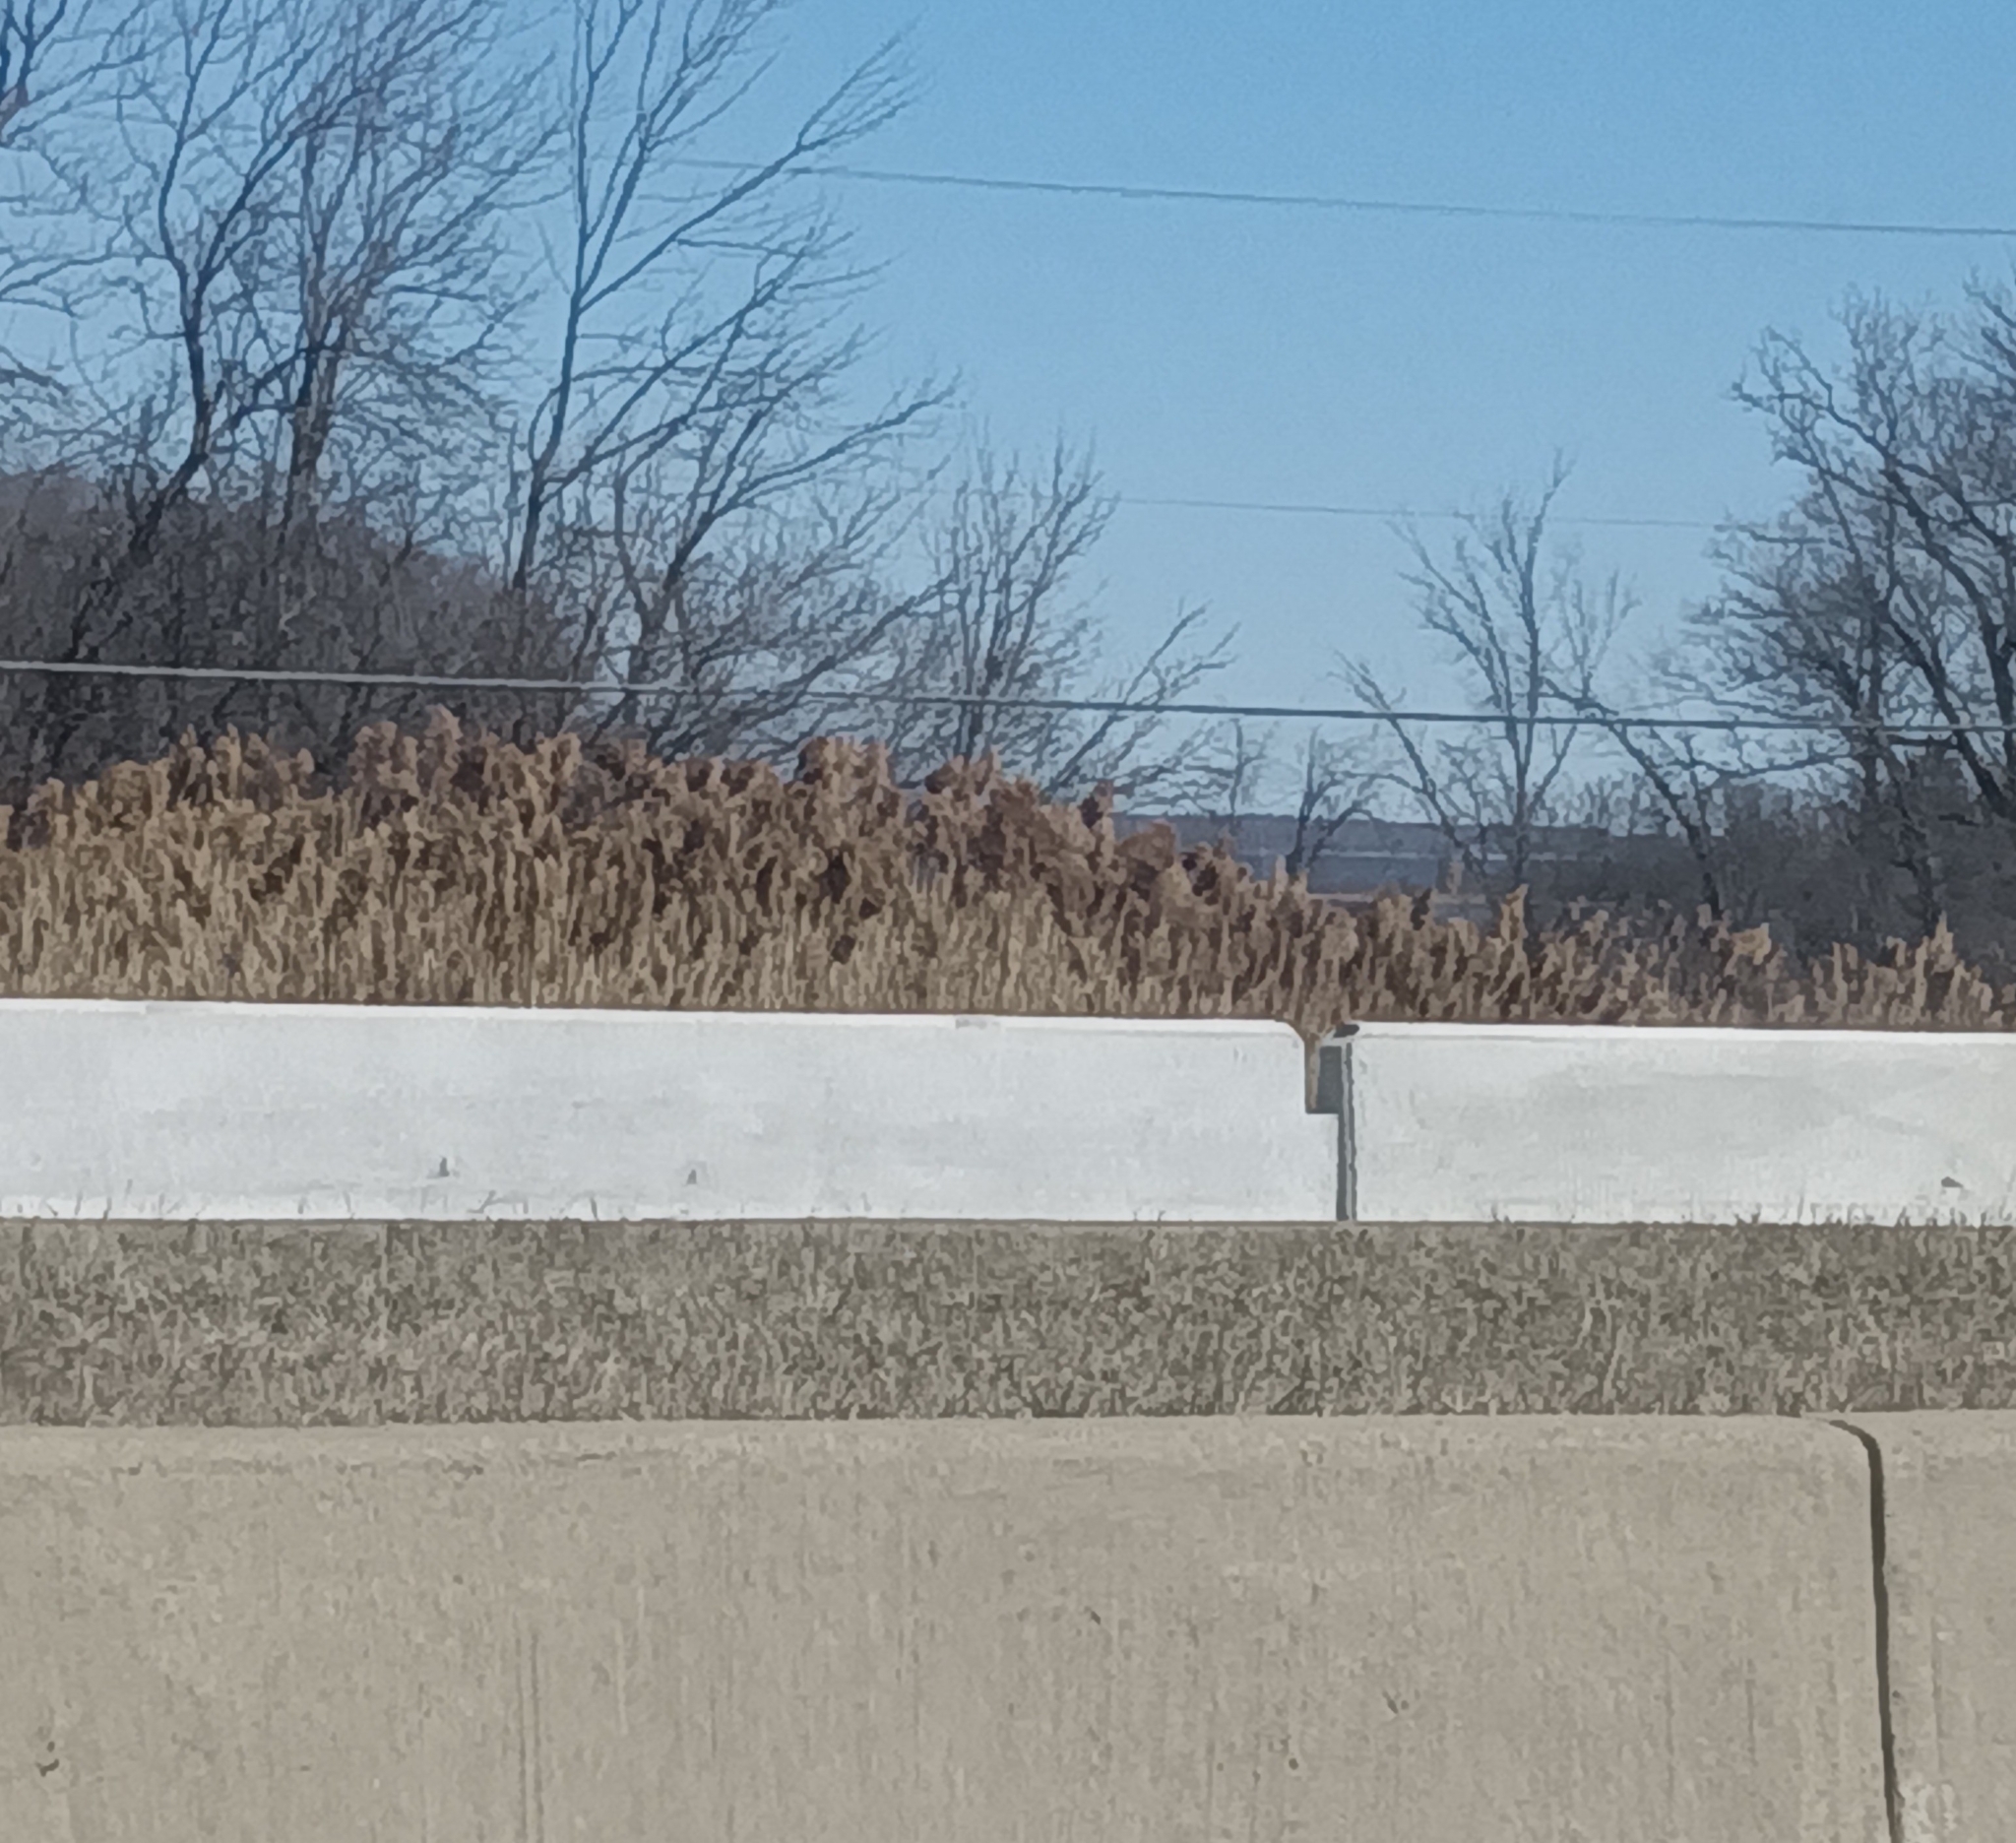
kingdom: Plantae
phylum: Tracheophyta
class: Liliopsida
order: Poales
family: Poaceae
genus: Phragmites
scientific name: Phragmites australis
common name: Common reed
